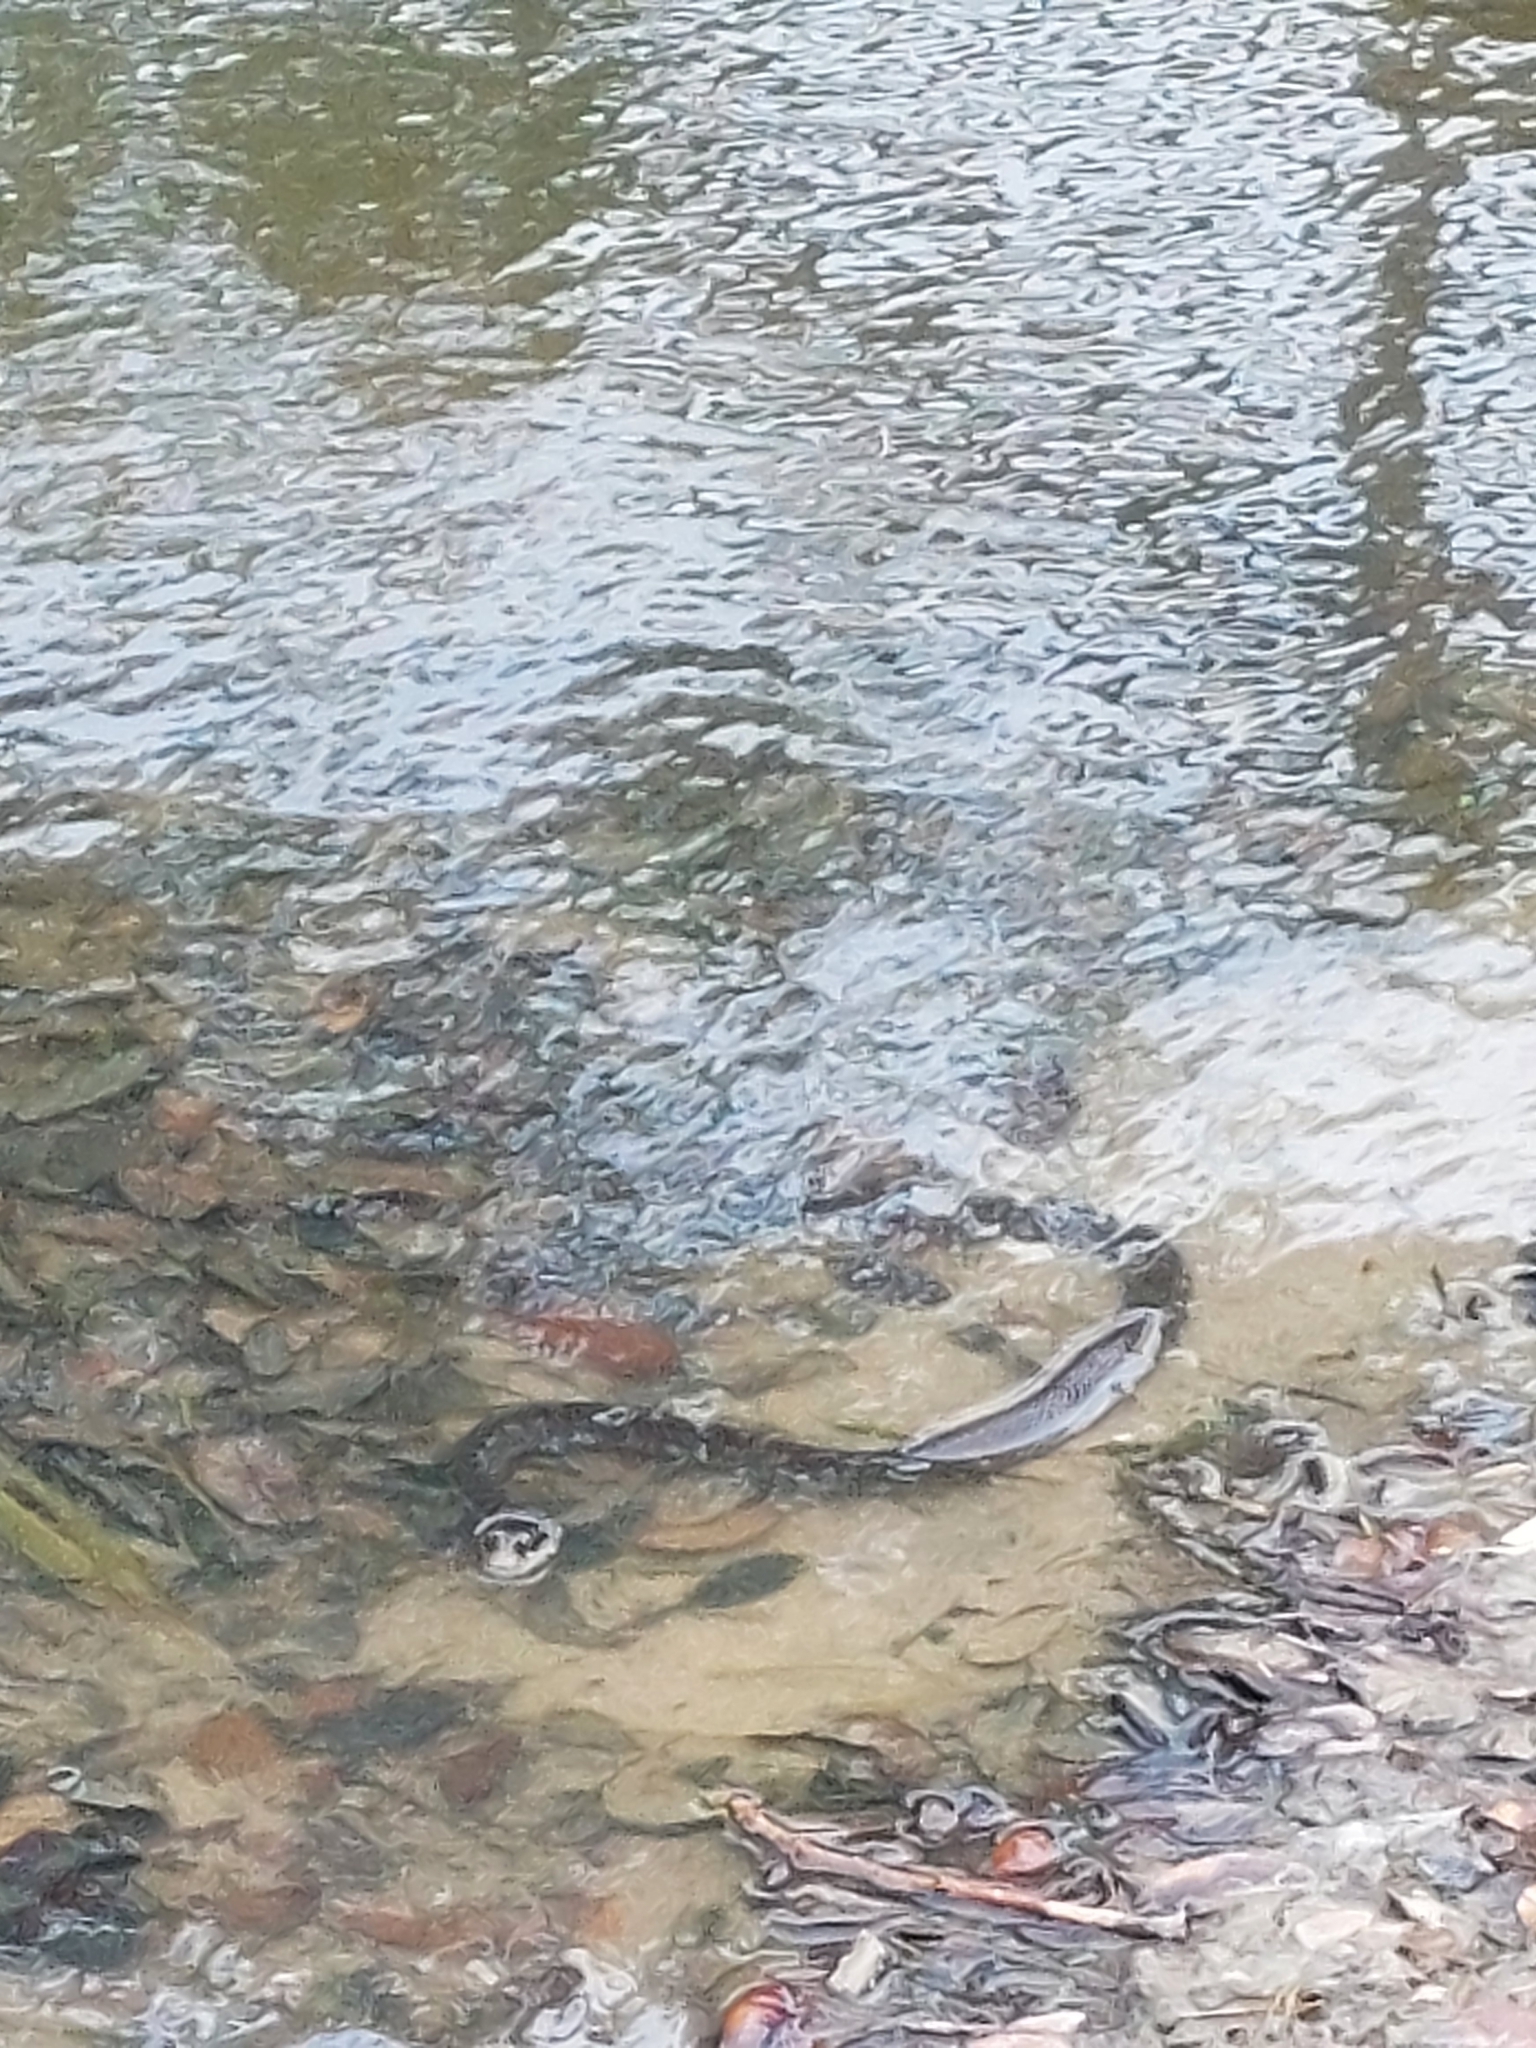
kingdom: Animalia
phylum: Chordata
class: Squamata
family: Colubridae
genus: Nerodia
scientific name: Nerodia erythrogaster
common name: Plainbelly water snake
